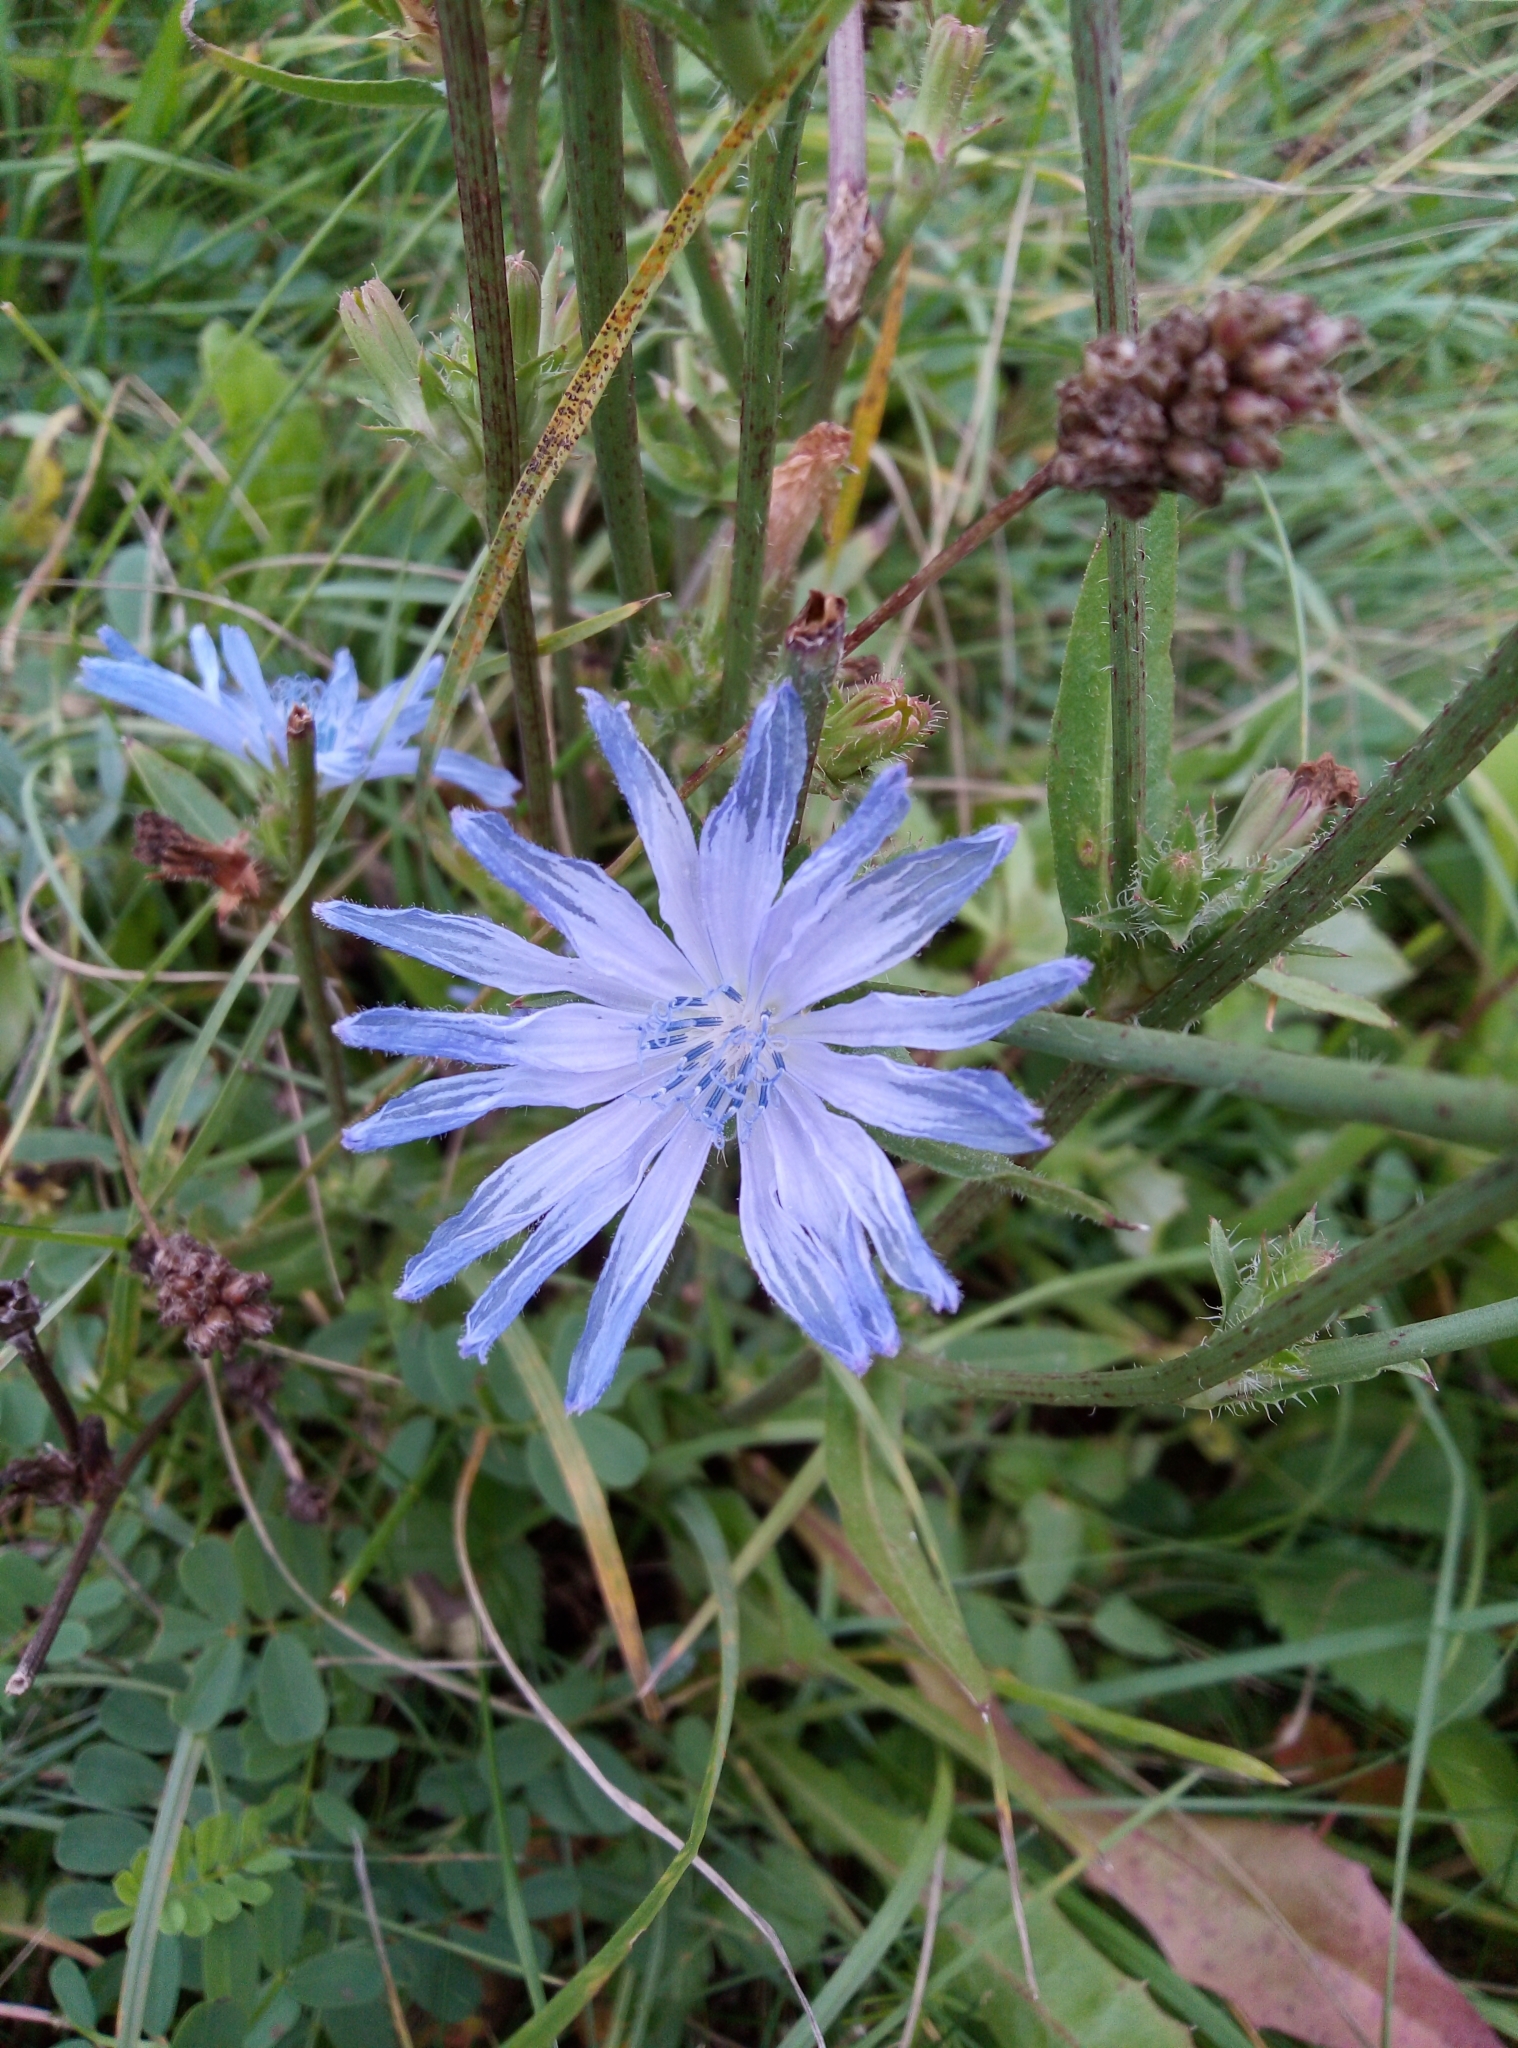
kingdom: Plantae
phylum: Tracheophyta
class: Magnoliopsida
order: Asterales
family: Asteraceae
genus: Cichorium
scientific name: Cichorium intybus
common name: Chicory
